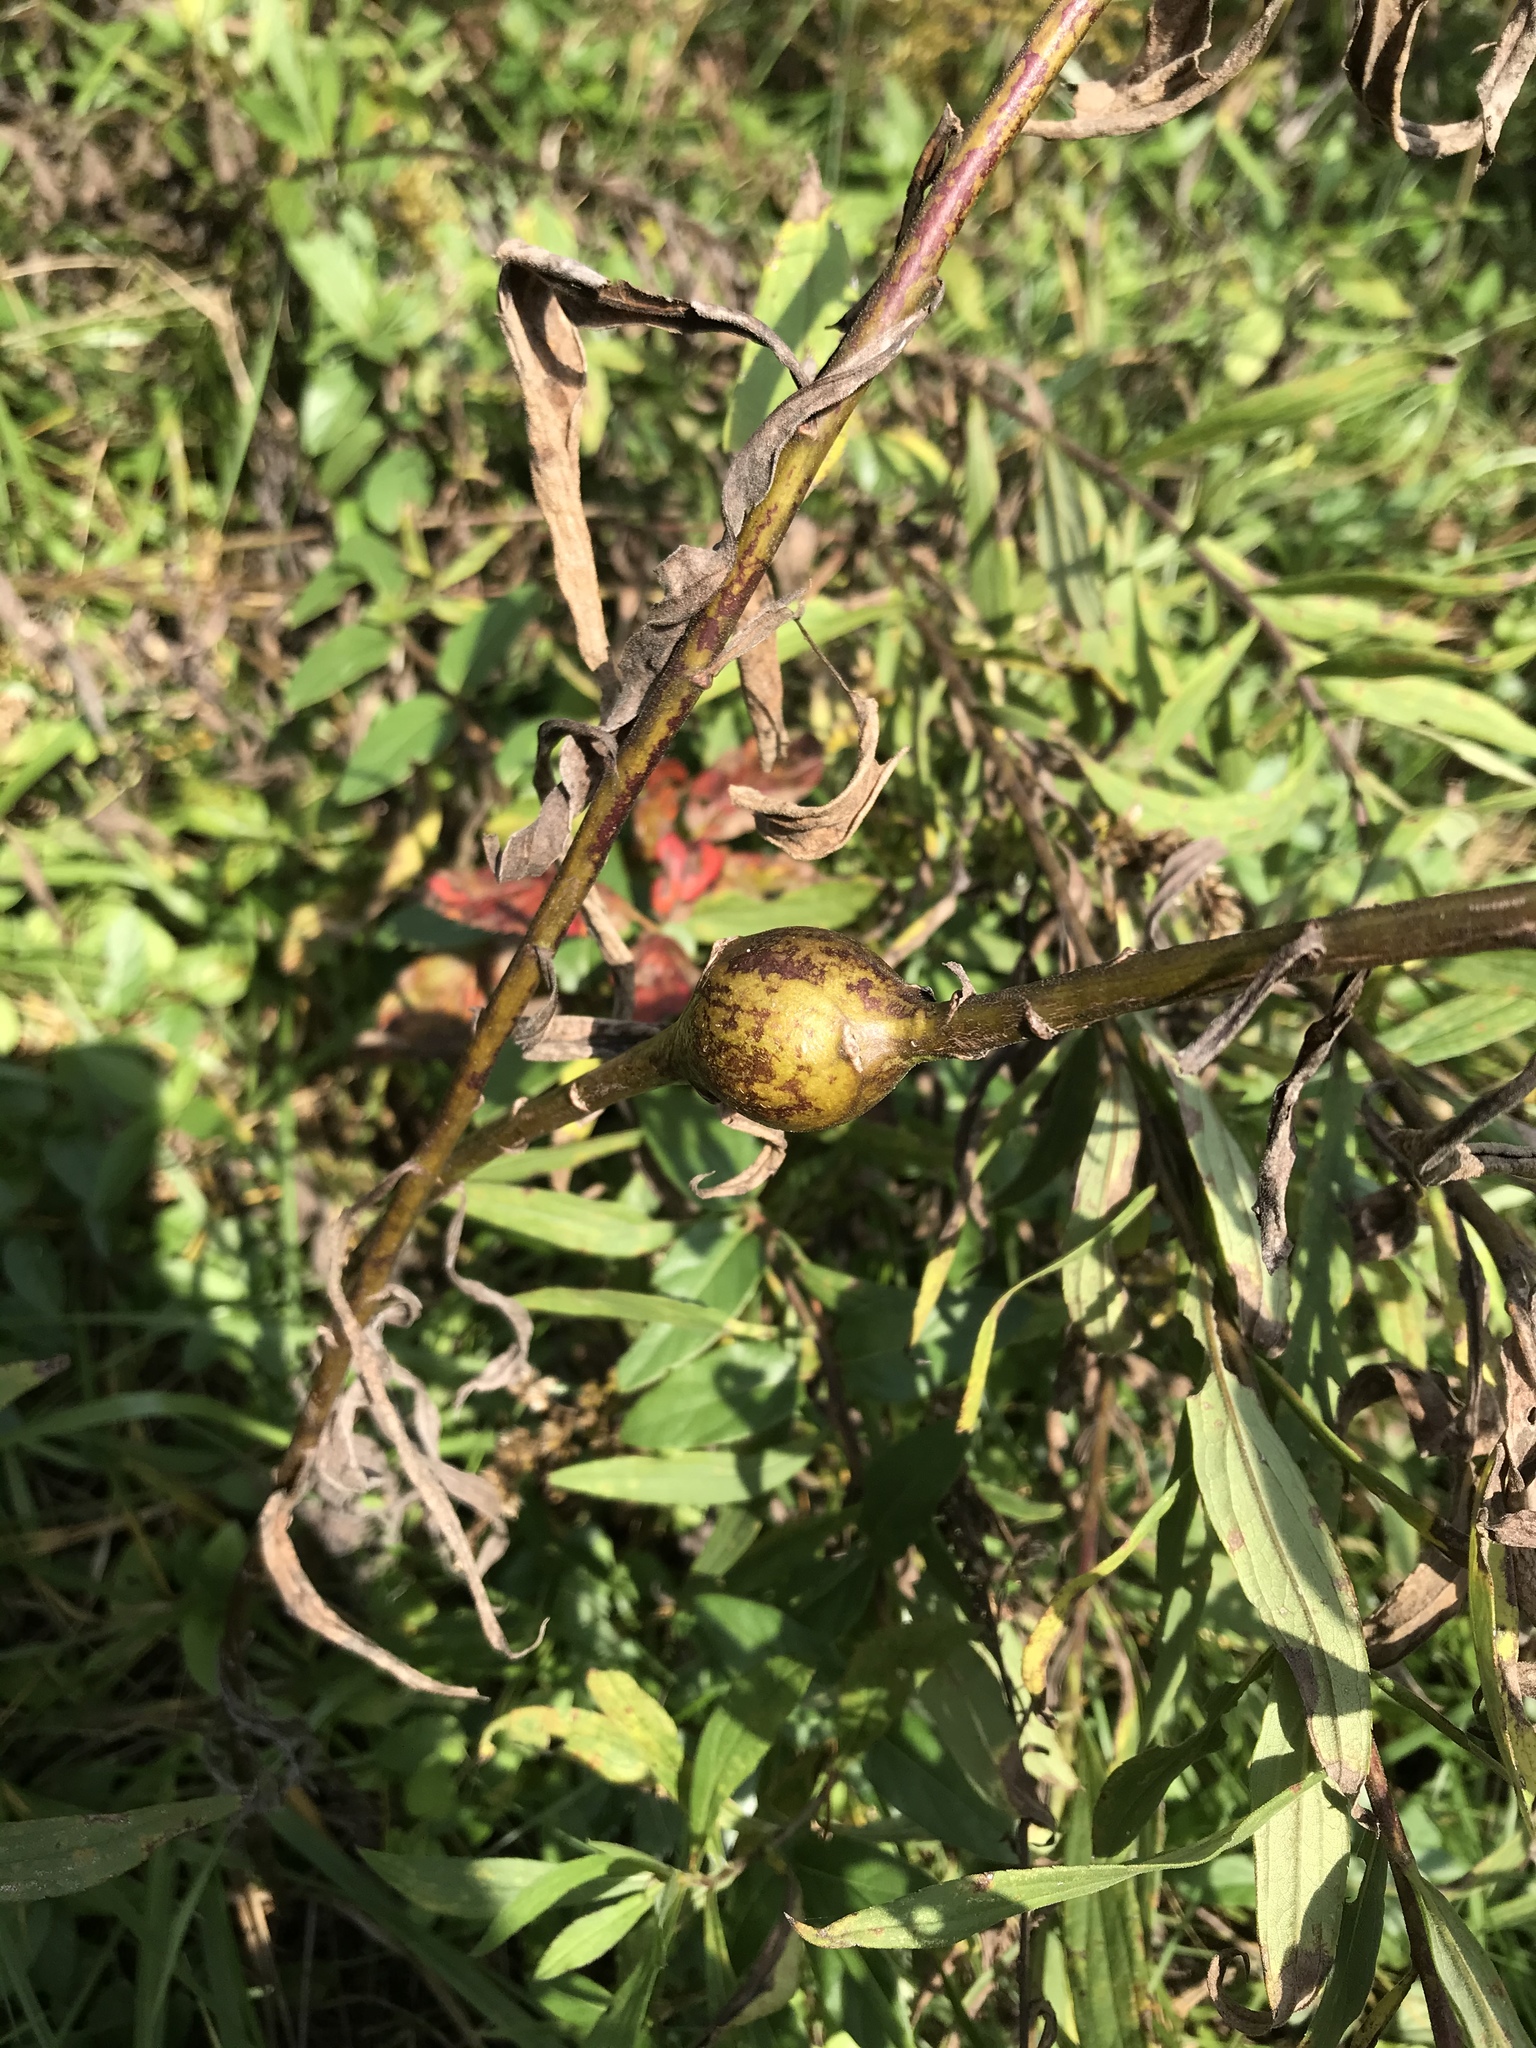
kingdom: Animalia
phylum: Arthropoda
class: Insecta
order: Diptera
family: Tephritidae
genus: Eurosta
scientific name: Eurosta solidaginis
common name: Goldenrod gall fly
